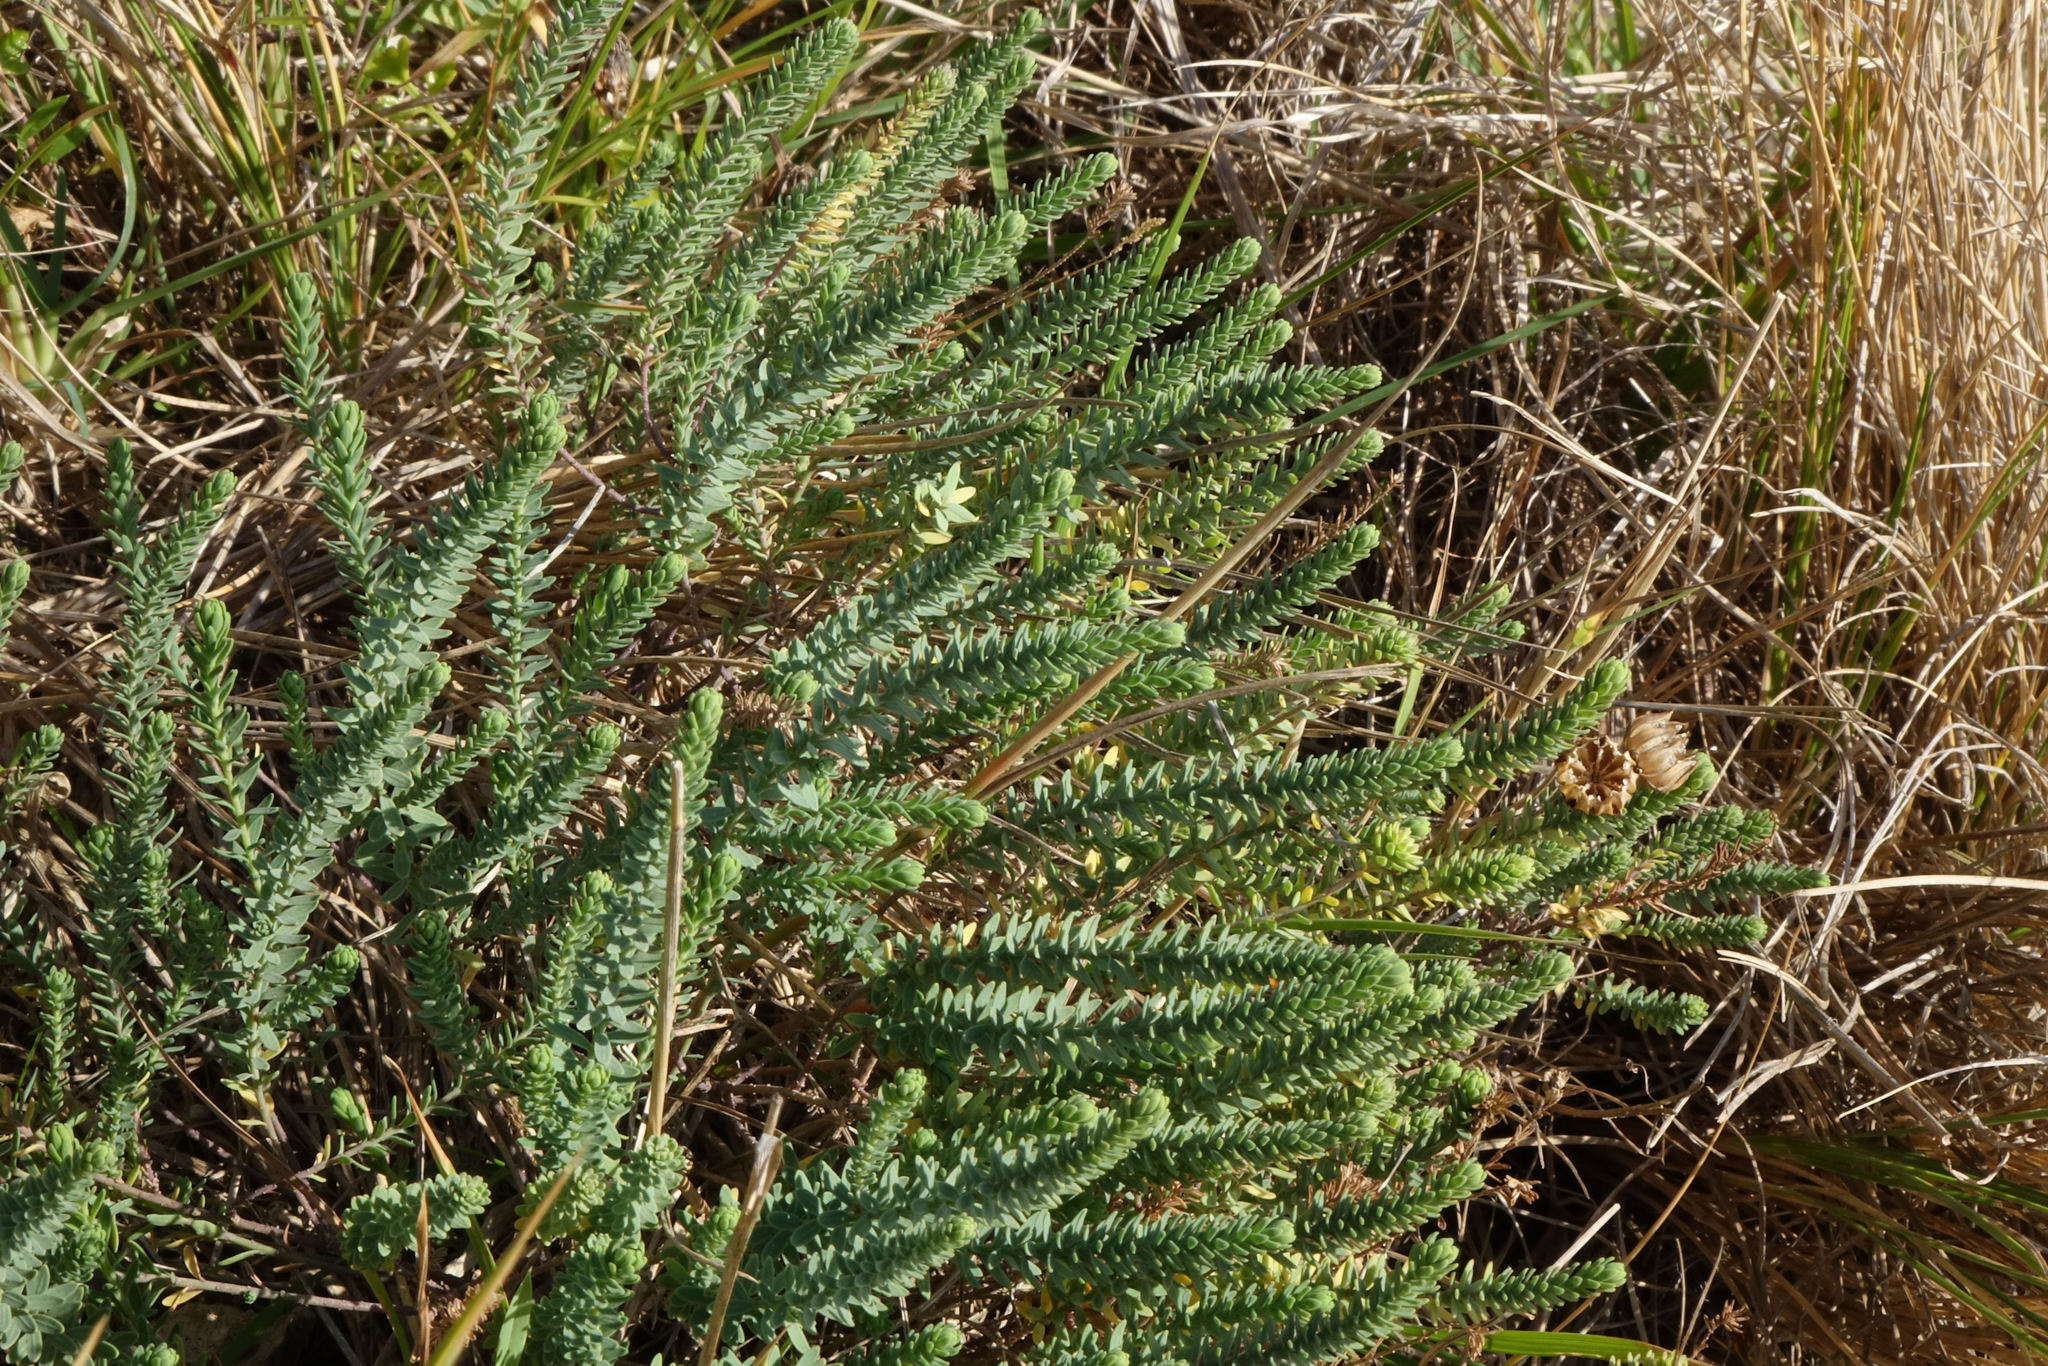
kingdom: Plantae
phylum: Tracheophyta
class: Magnoliopsida
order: Malpighiales
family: Linaceae
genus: Linum
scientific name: Linum monogynum
